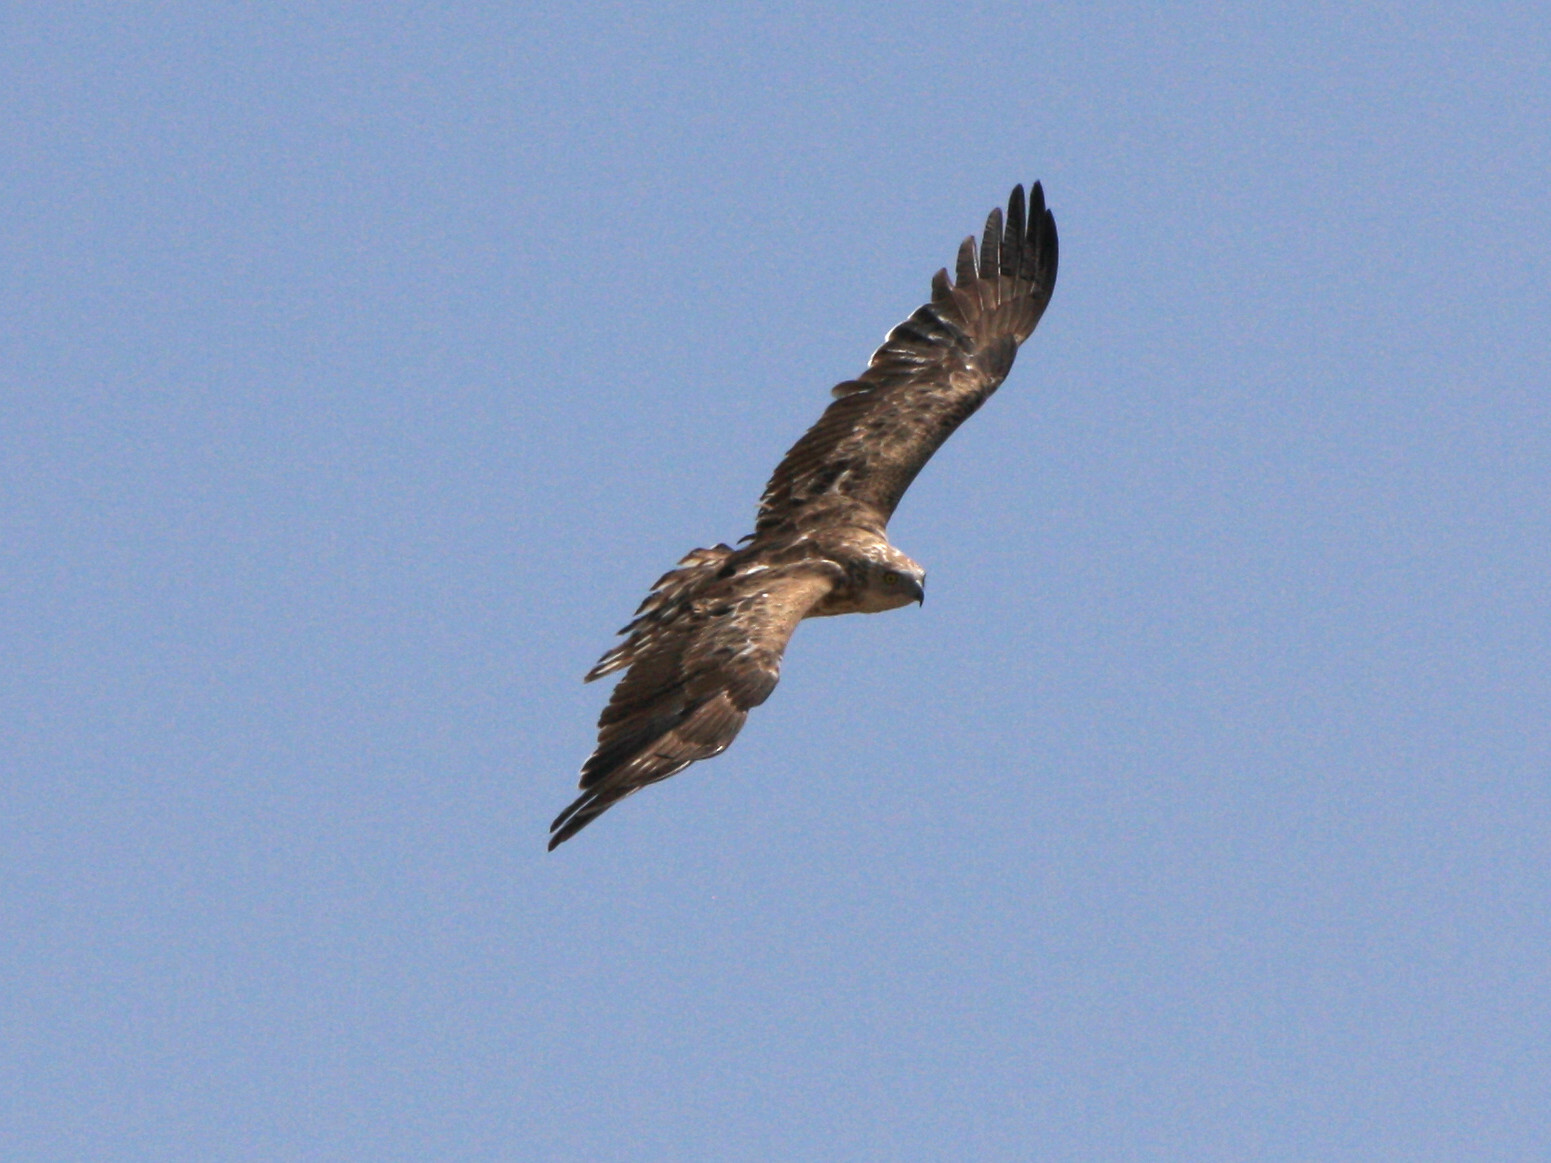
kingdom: Animalia
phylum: Chordata
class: Aves
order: Accipitriformes
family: Accipitridae
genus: Circaetus
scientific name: Circaetus gallicus
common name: Short-toed snake eagle
